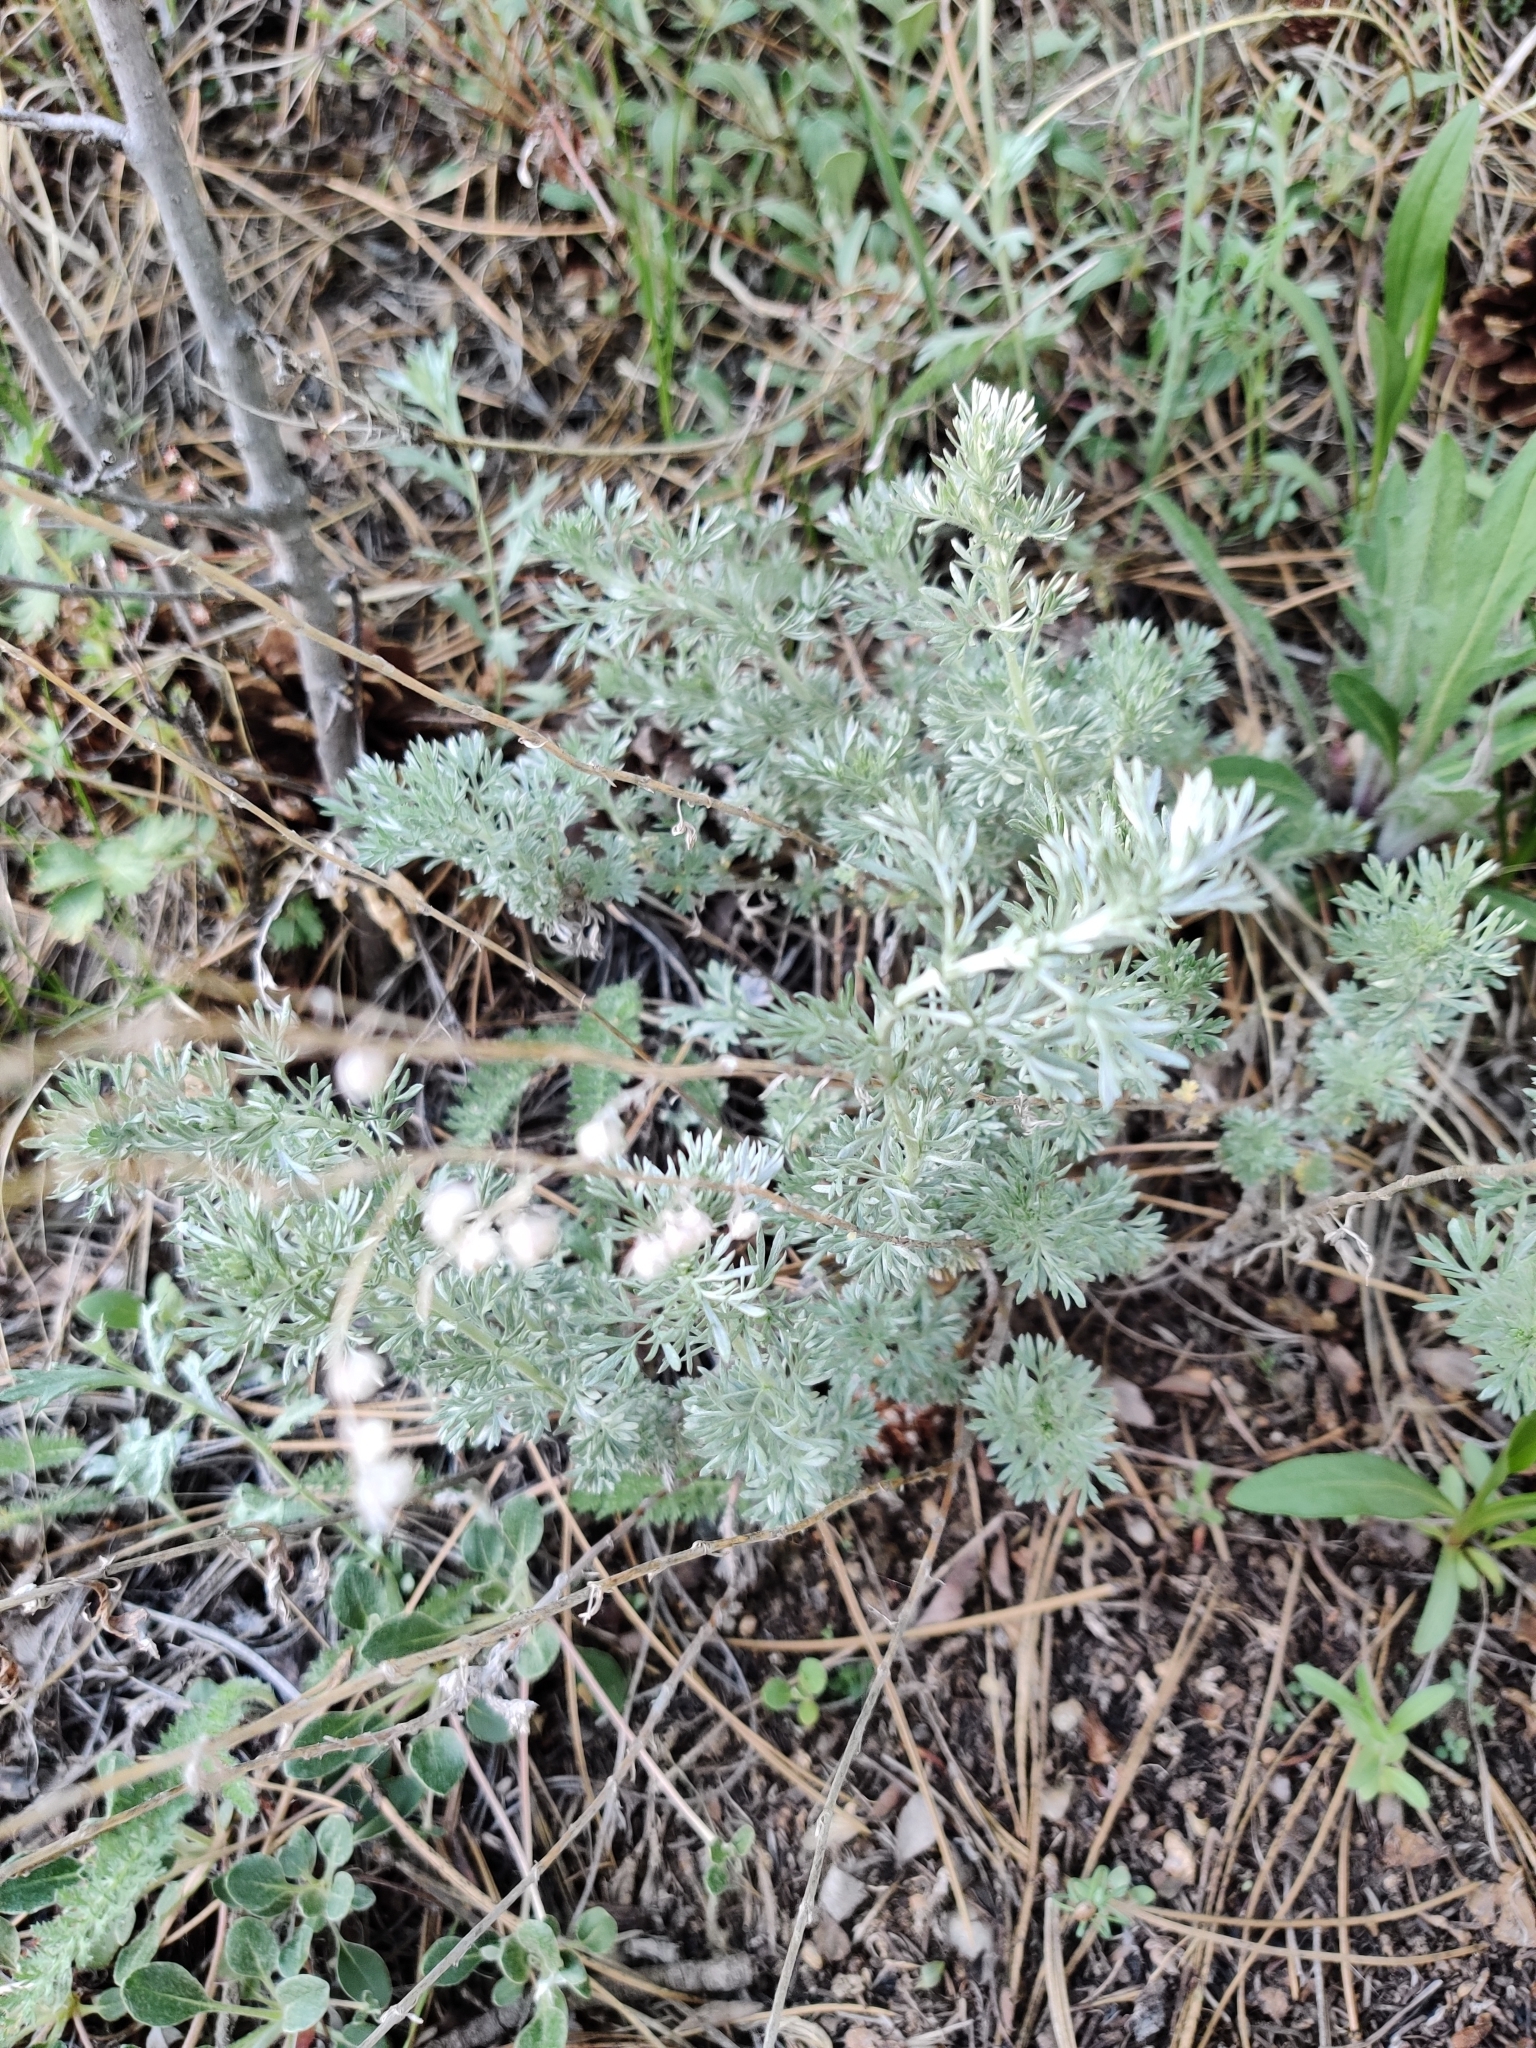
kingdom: Plantae
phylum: Tracheophyta
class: Magnoliopsida
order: Asterales
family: Asteraceae
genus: Artemisia
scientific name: Artemisia frigida
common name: Prairie sagewort
